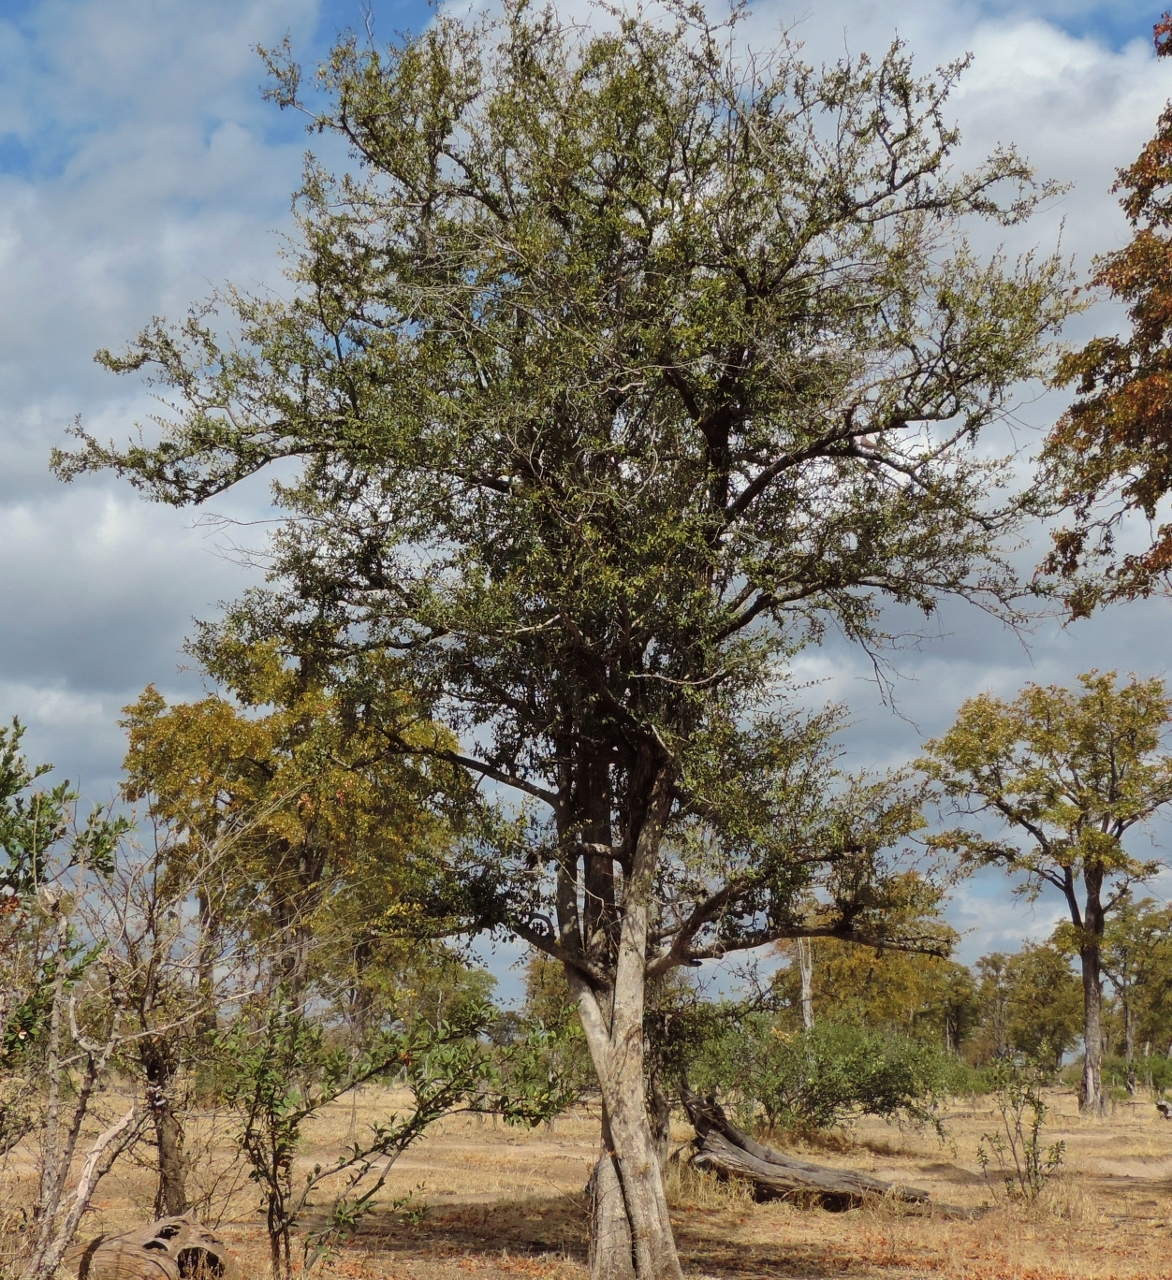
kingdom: Plantae
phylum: Tracheophyta
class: Magnoliopsida
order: Ericales
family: Ebenaceae
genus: Diospyros
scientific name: Diospyros quiloensis
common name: Crocodile bark jackal berry
